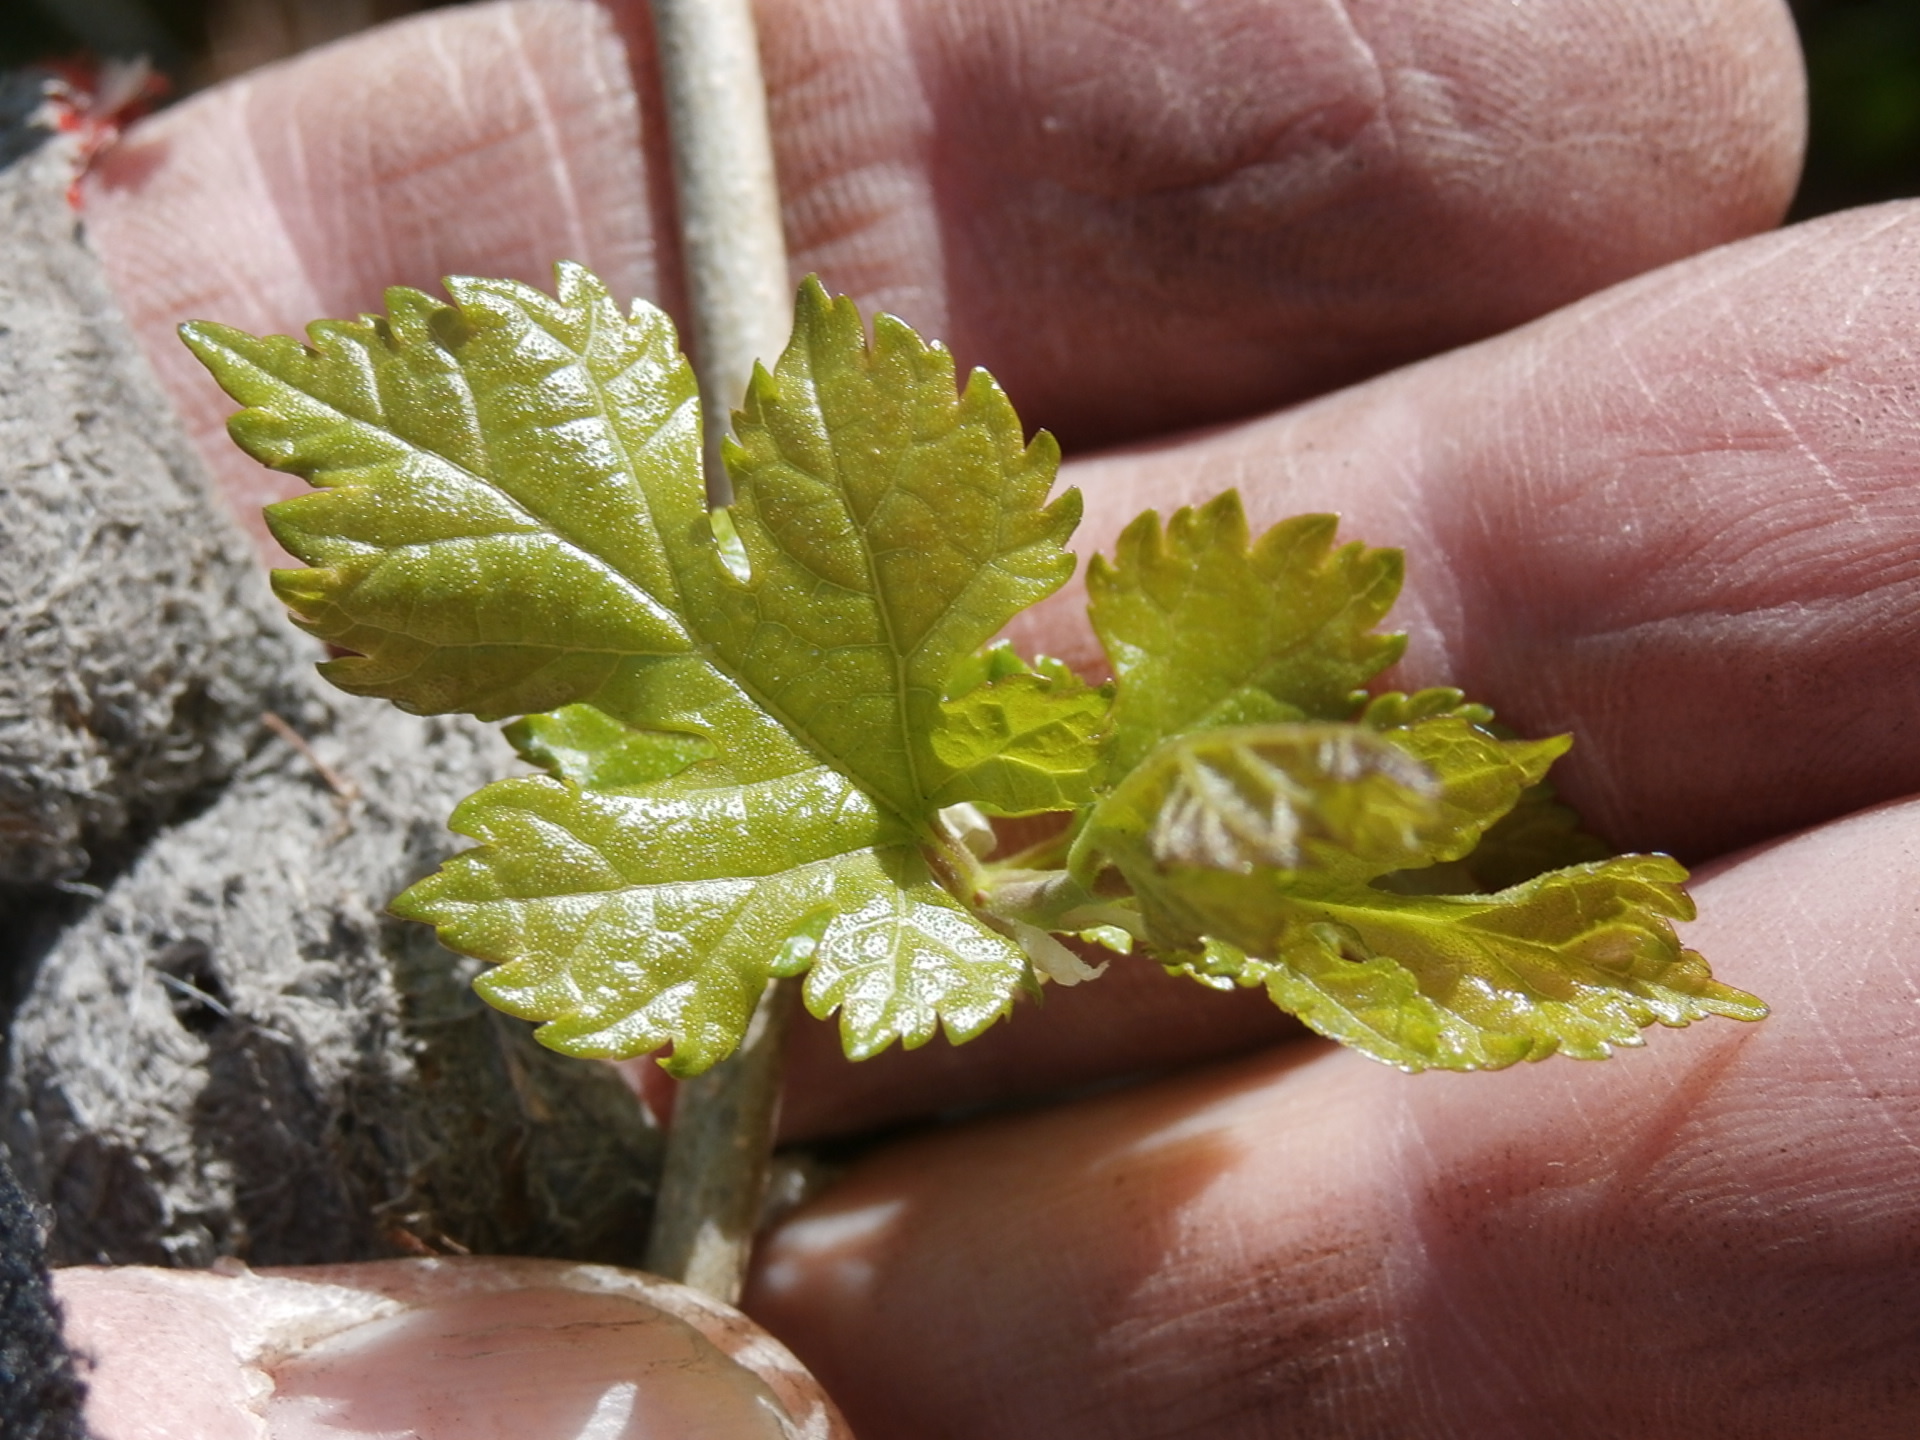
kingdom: Plantae
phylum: Tracheophyta
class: Magnoliopsida
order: Rosales
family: Moraceae
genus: Morus
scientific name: Morus alba
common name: White mulberry
